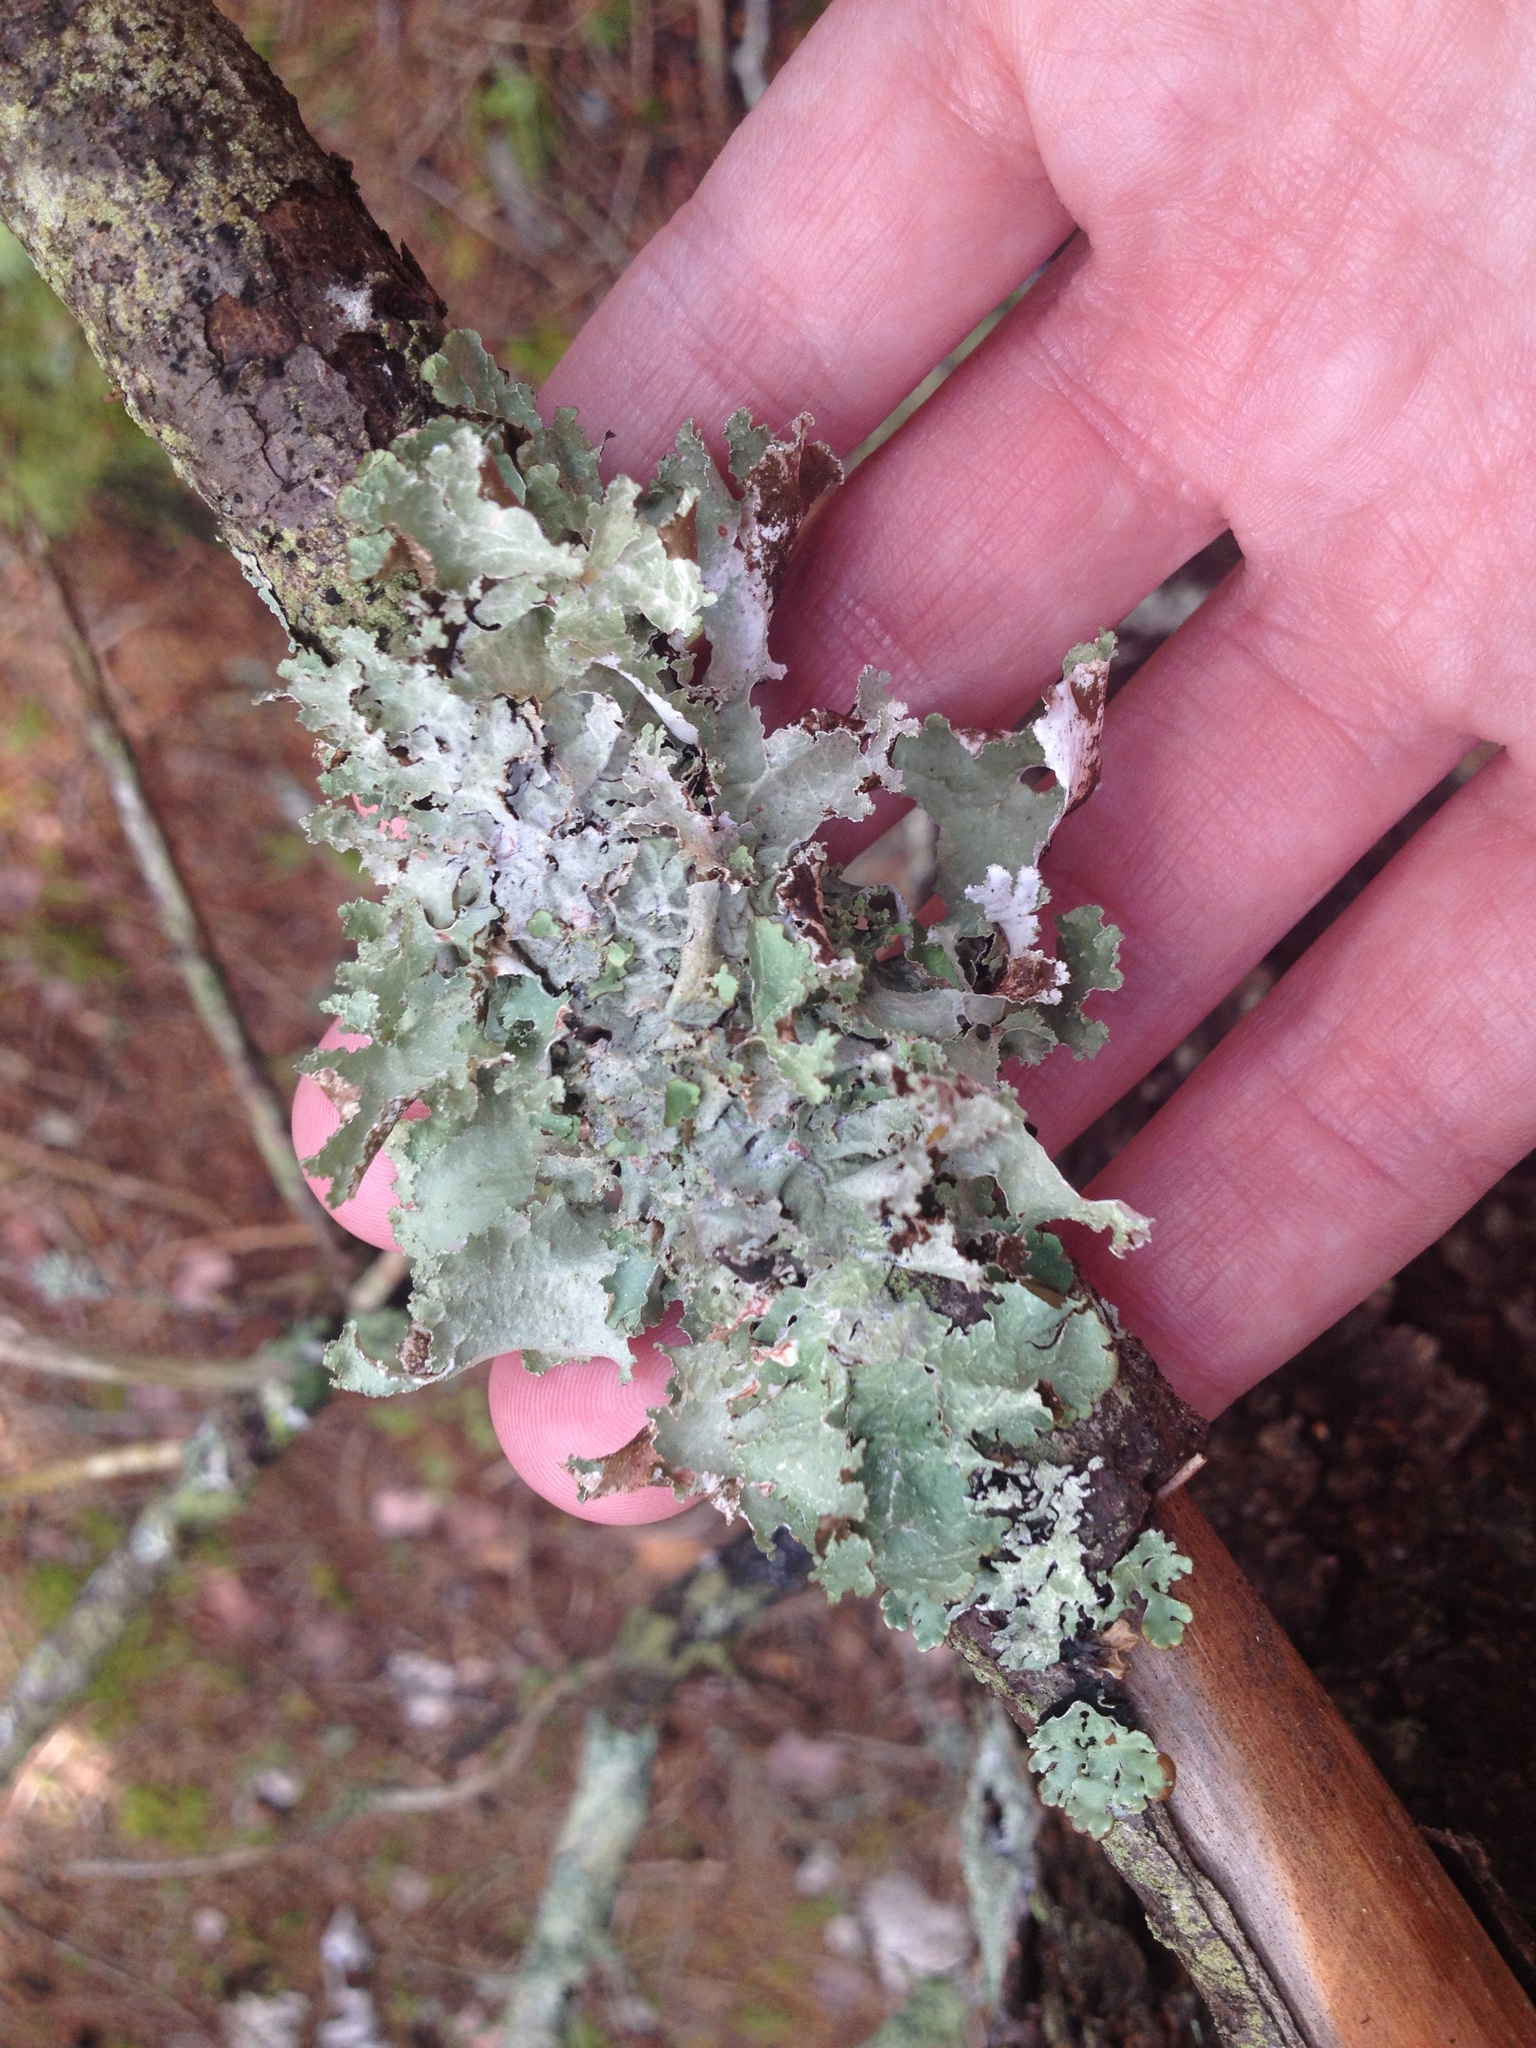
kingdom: Fungi
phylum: Ascomycota
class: Lecanoromycetes
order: Lecanorales
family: Parmeliaceae
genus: Platismatia
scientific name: Platismatia glauca
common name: Varied rag lichen
